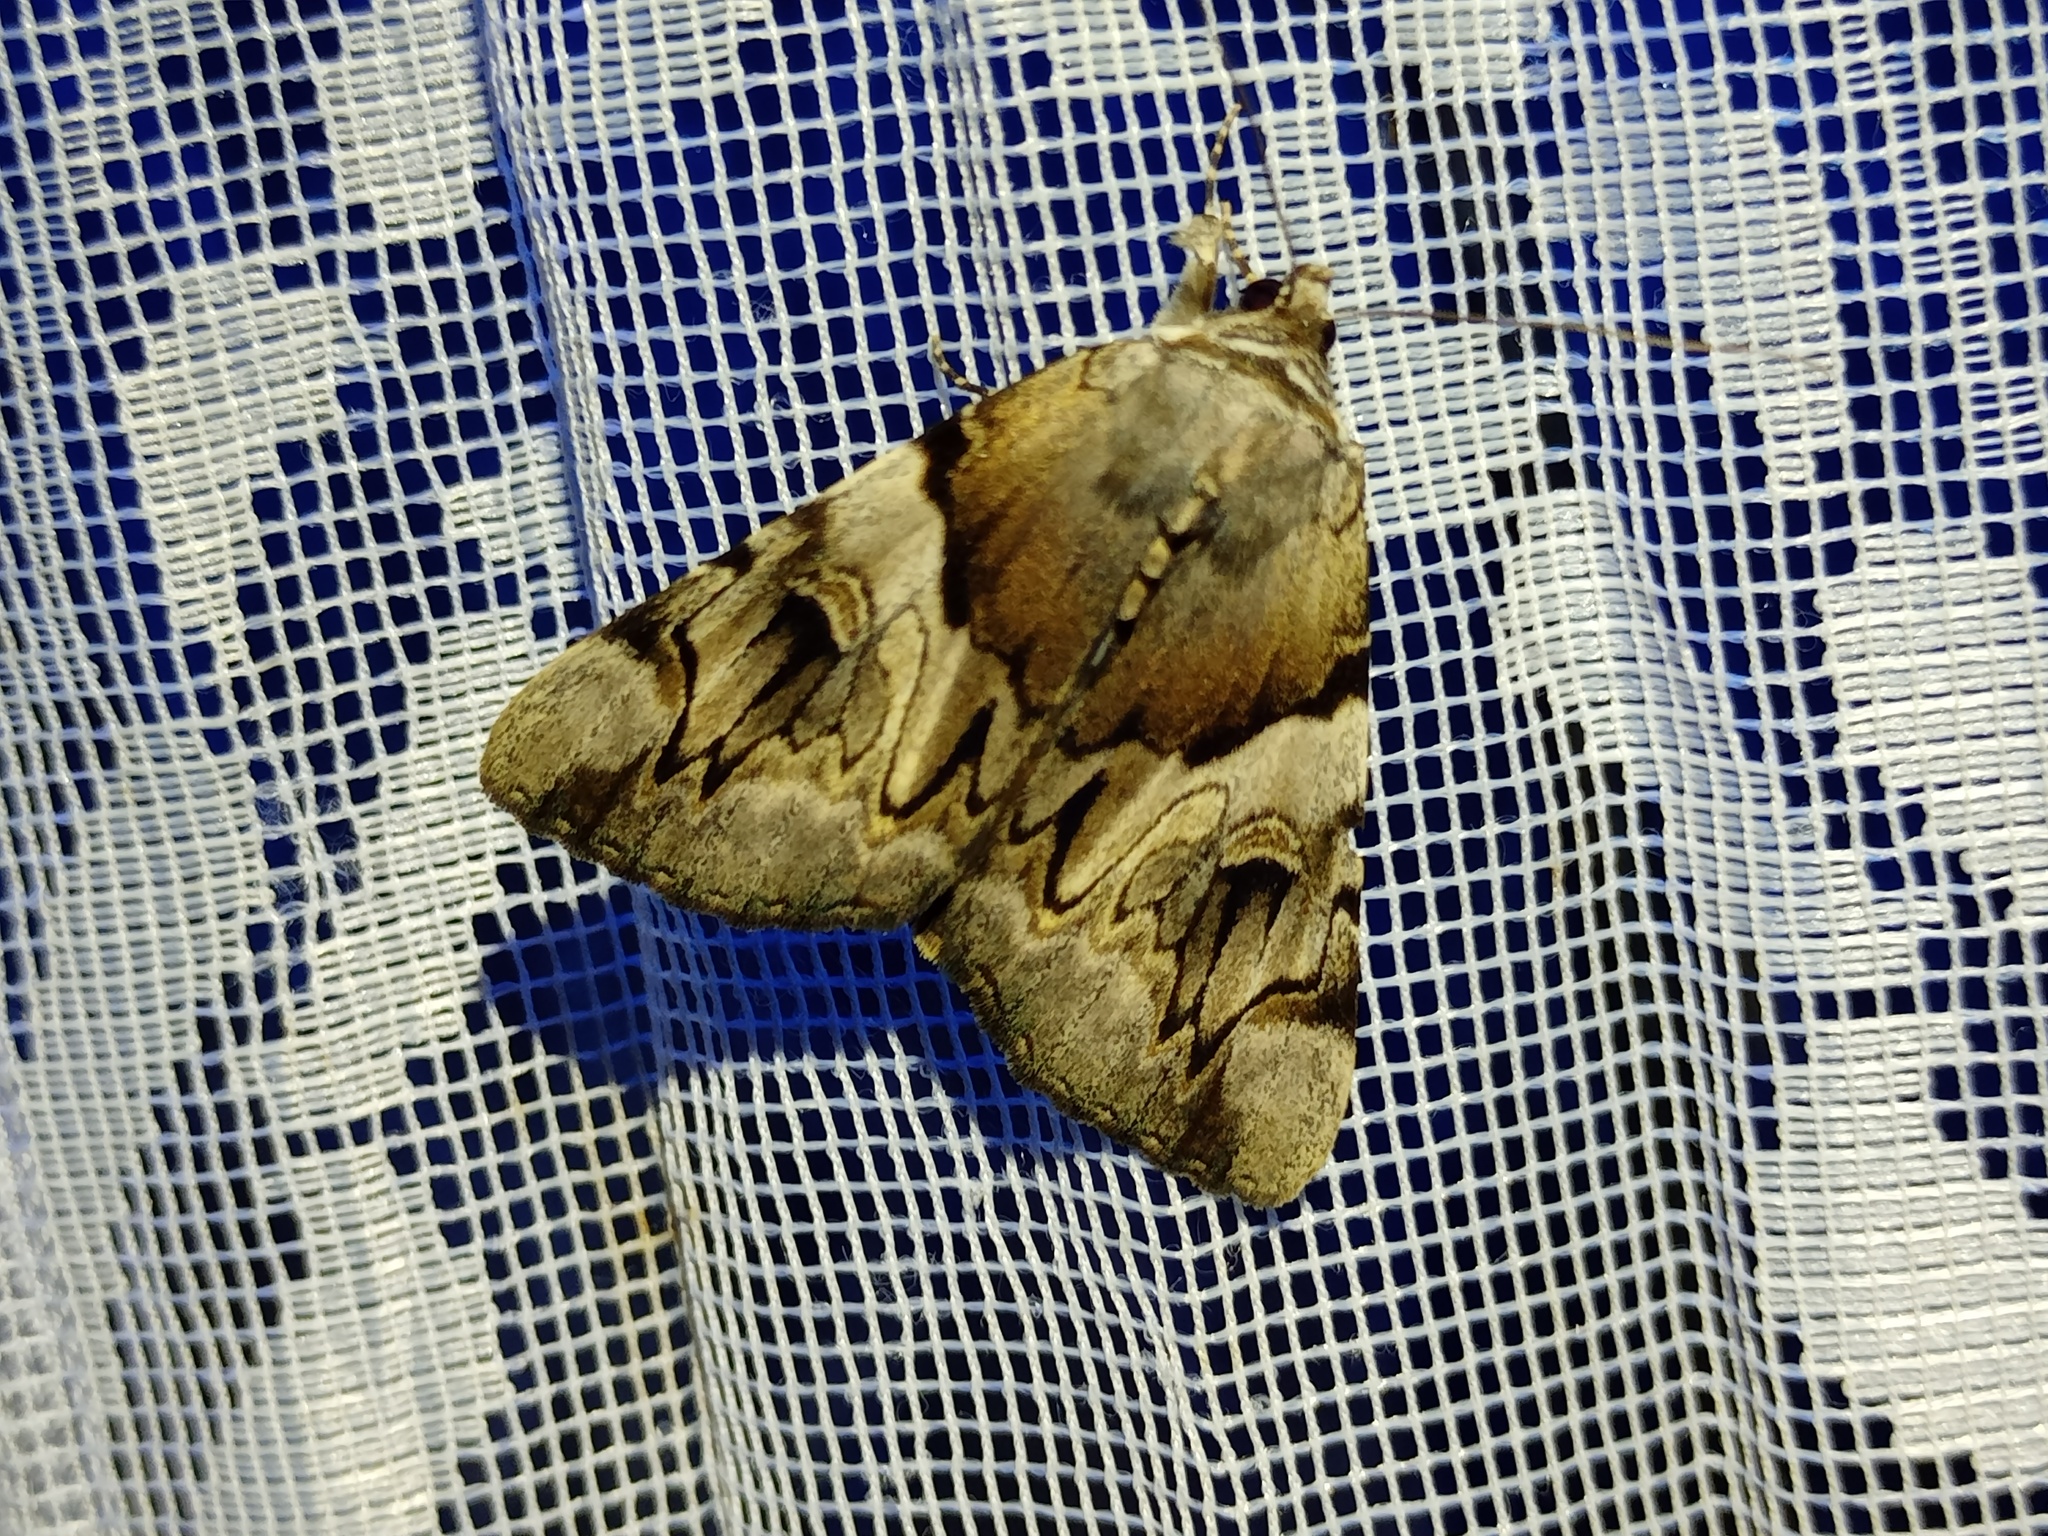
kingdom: Animalia
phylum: Arthropoda
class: Insecta
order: Lepidoptera
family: Erebidae
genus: Catocala
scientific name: Catocala fulminea
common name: Yellow bands underwing
